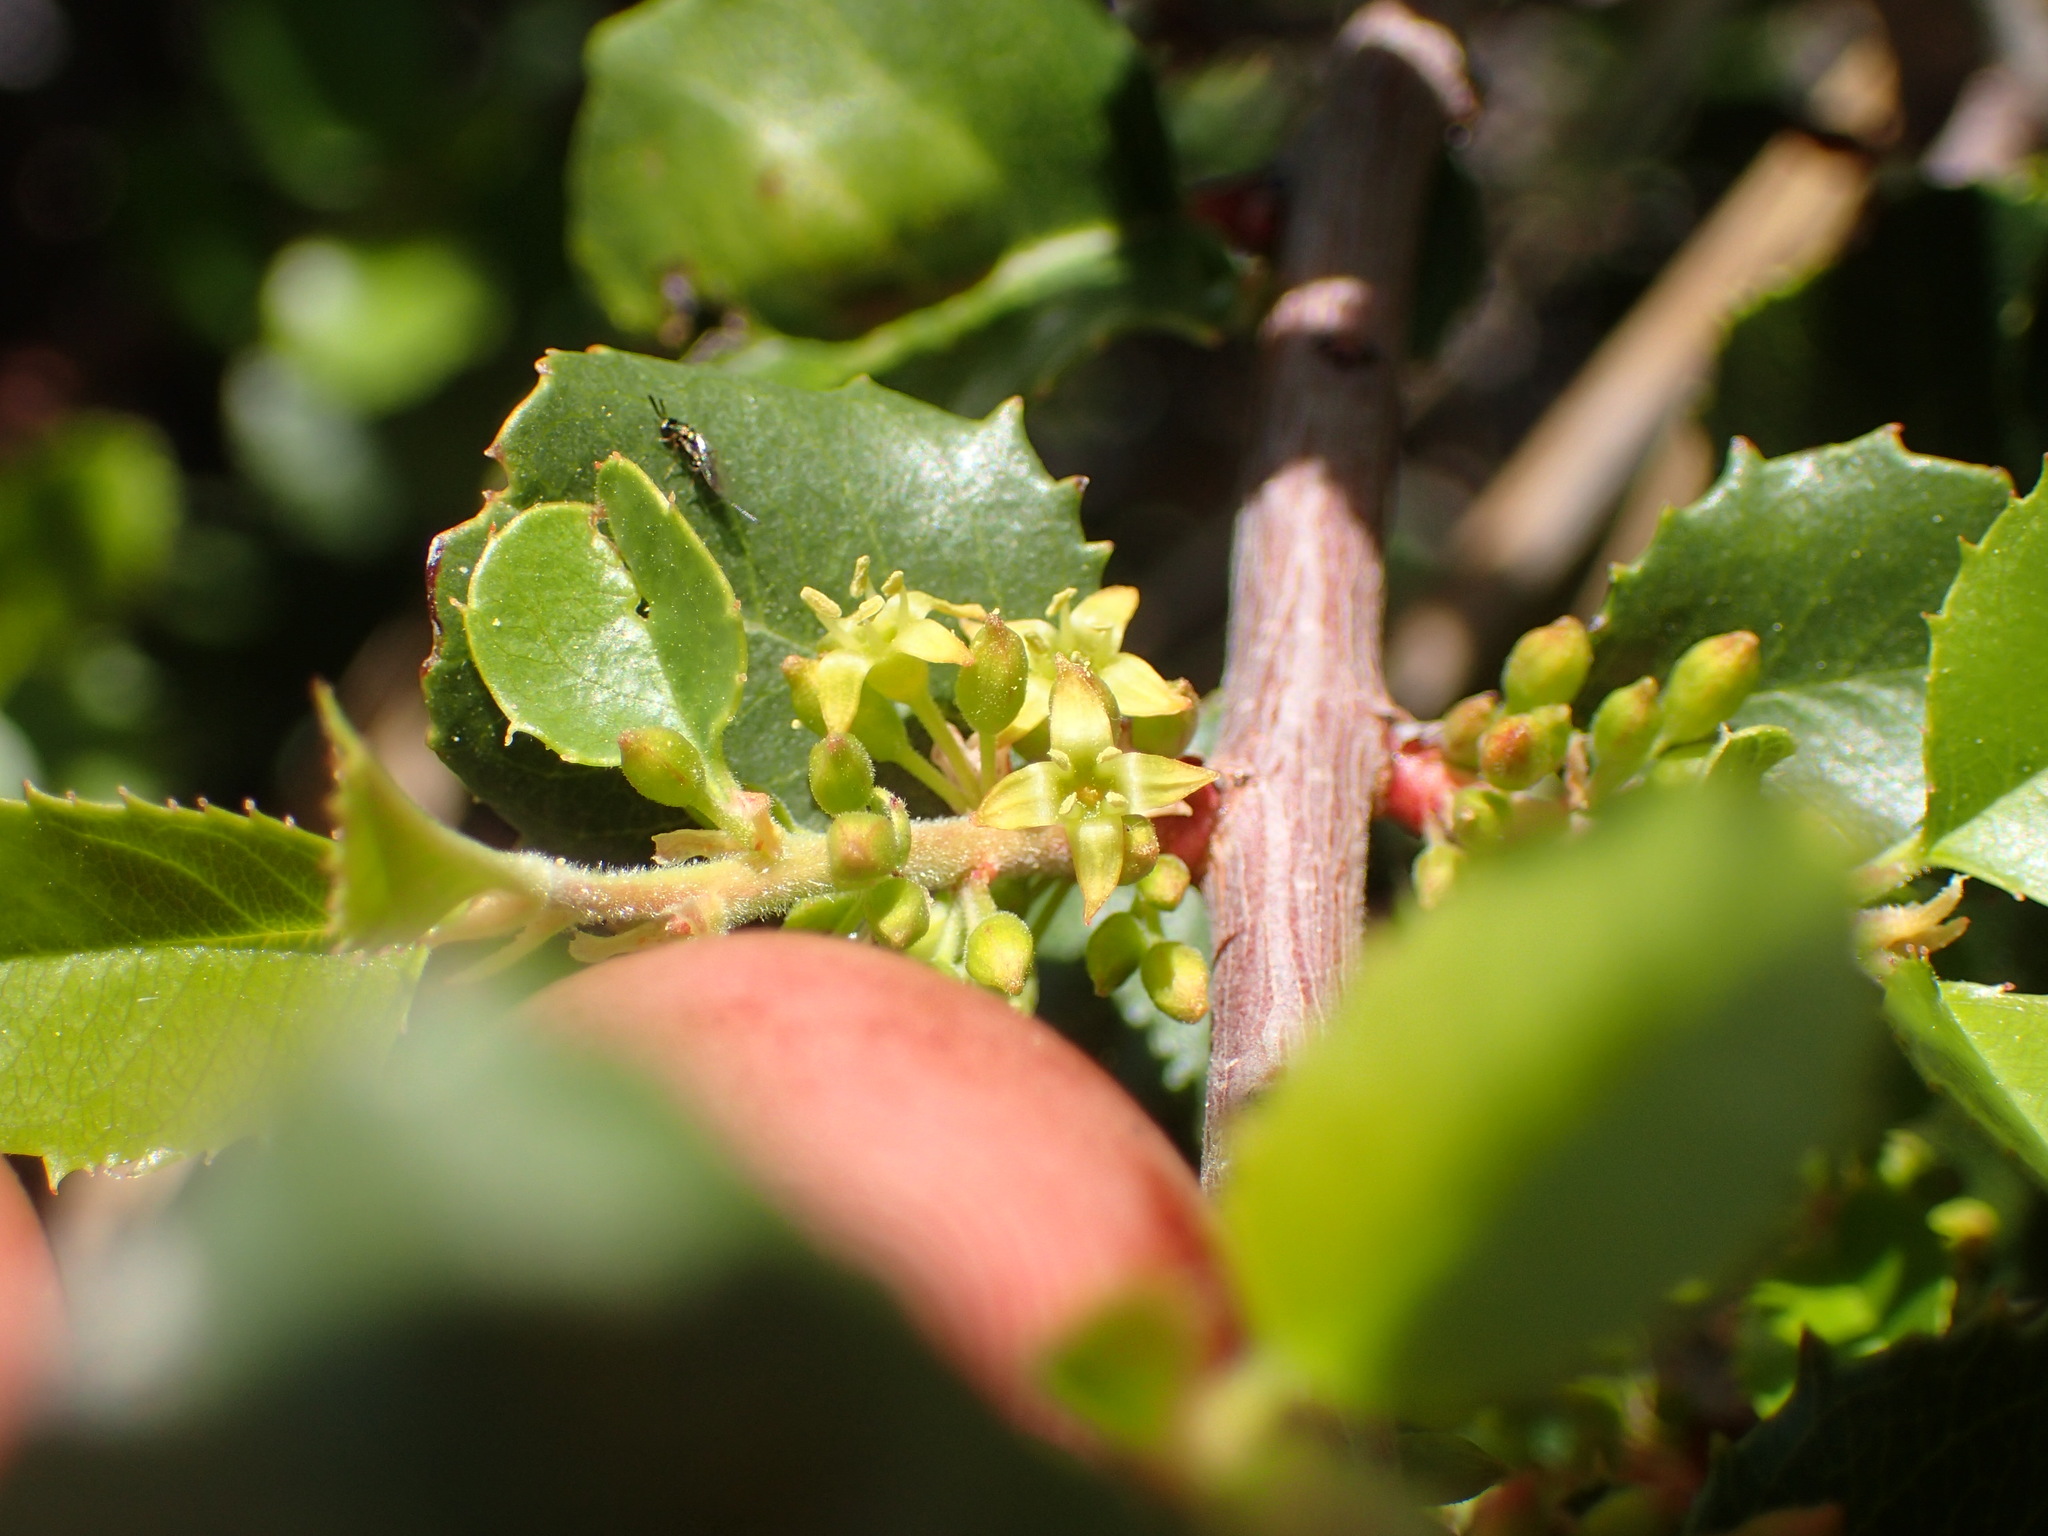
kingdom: Plantae
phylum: Tracheophyta
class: Magnoliopsida
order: Rosales
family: Rhamnaceae
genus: Endotropis
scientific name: Endotropis crocea
